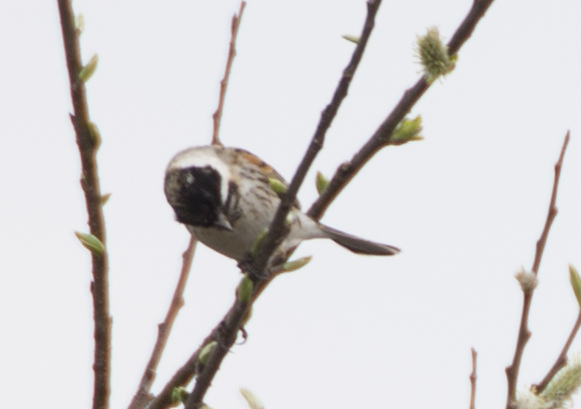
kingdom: Animalia
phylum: Chordata
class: Aves
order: Passeriformes
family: Emberizidae
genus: Emberiza
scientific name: Emberiza schoeniclus
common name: Reed bunting
